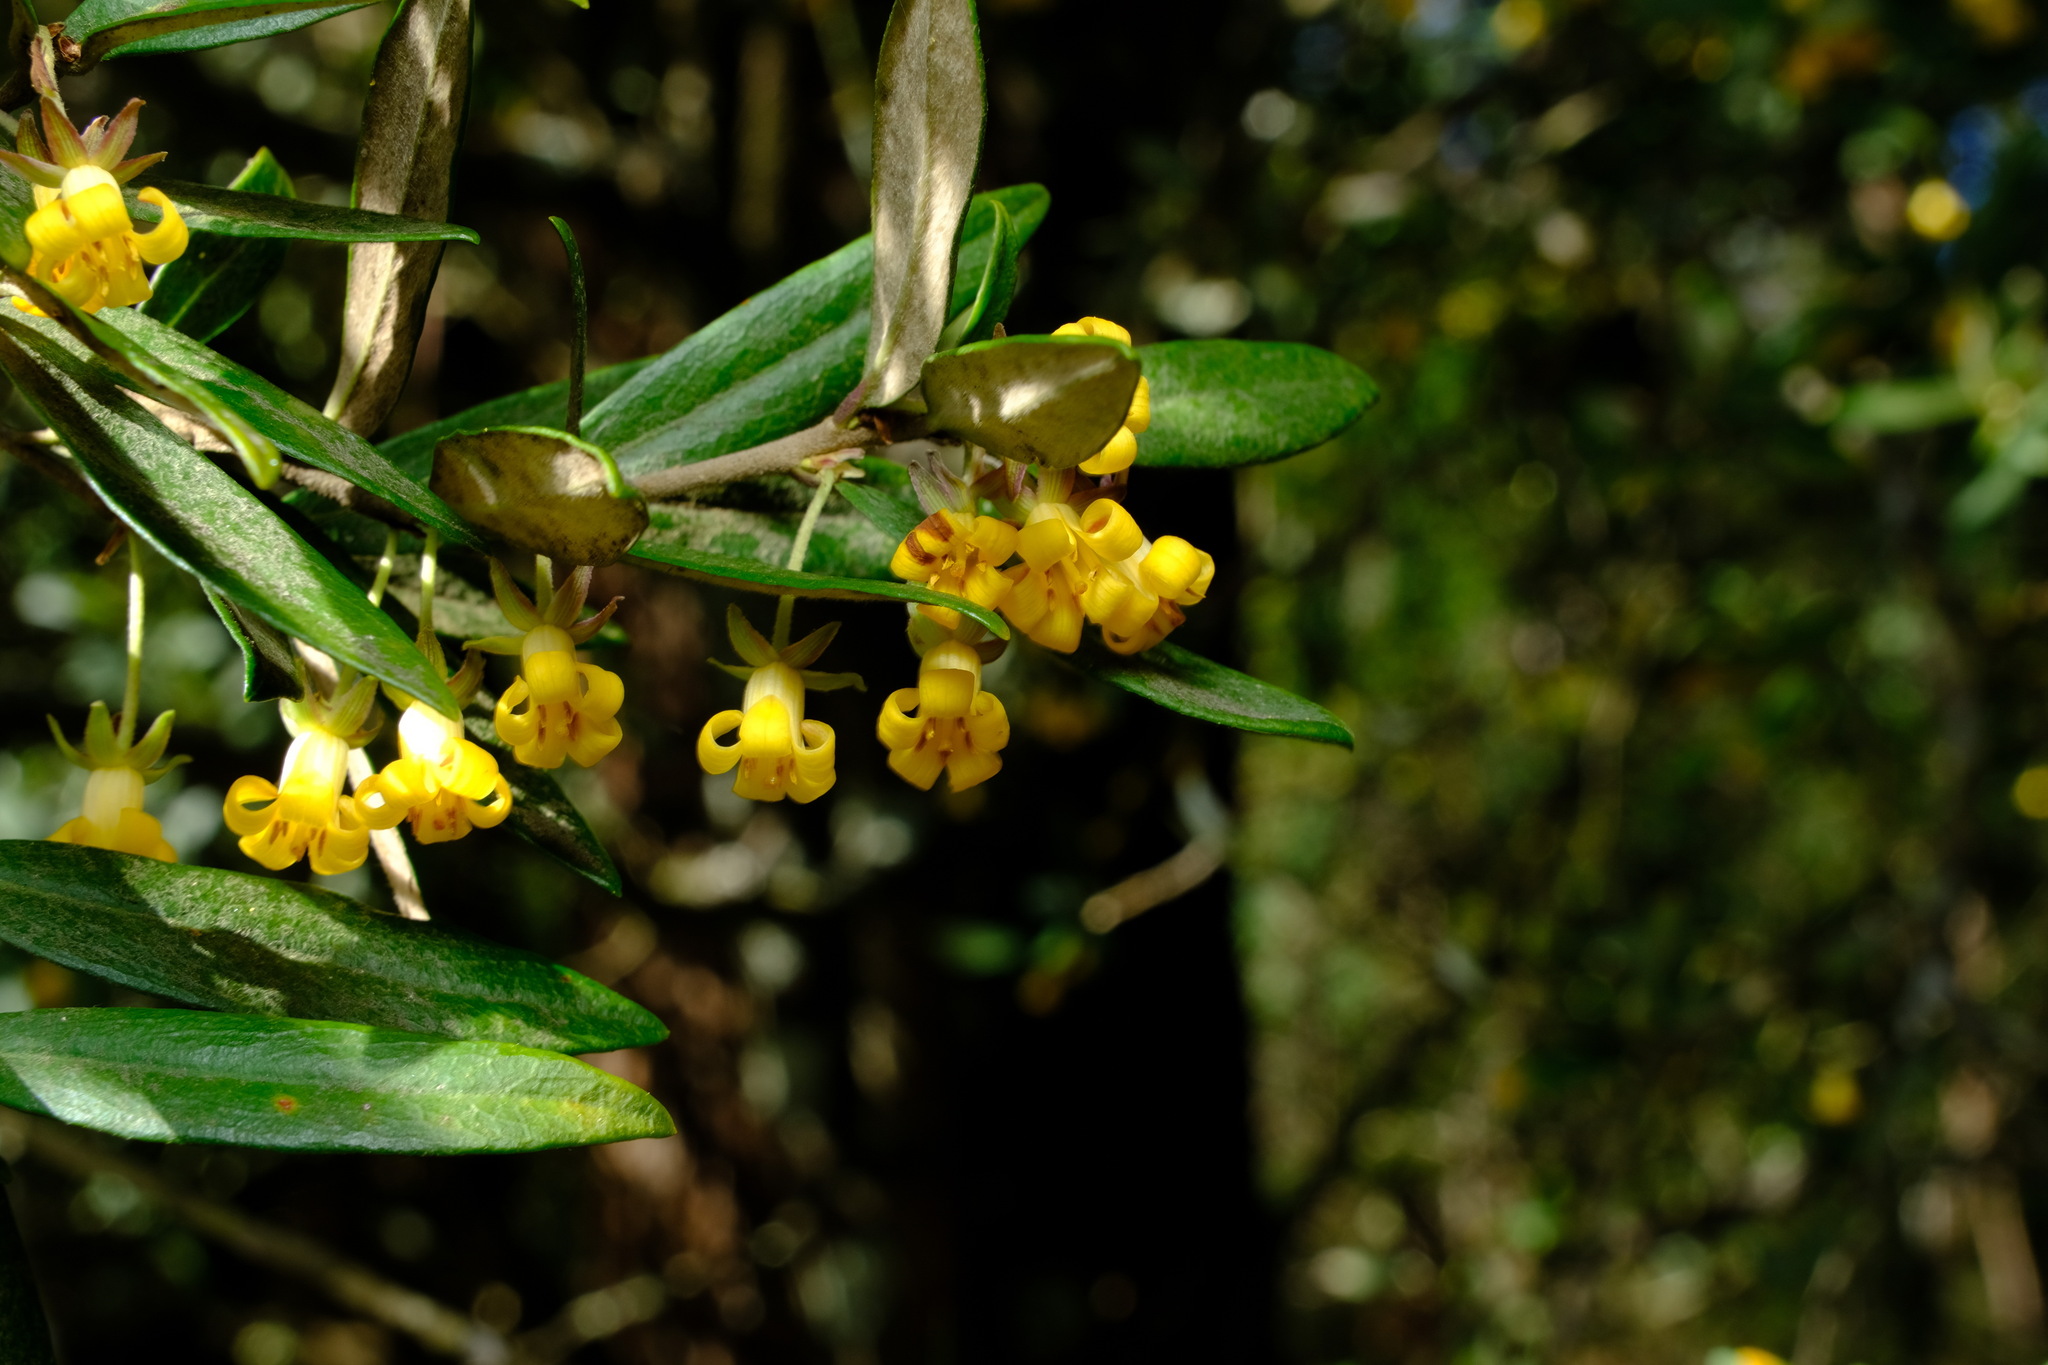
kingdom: Plantae
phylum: Tracheophyta
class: Magnoliopsida
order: Apiales
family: Pittosporaceae
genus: Pittosporum
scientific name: Pittosporum bicolor
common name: Tallowwood
